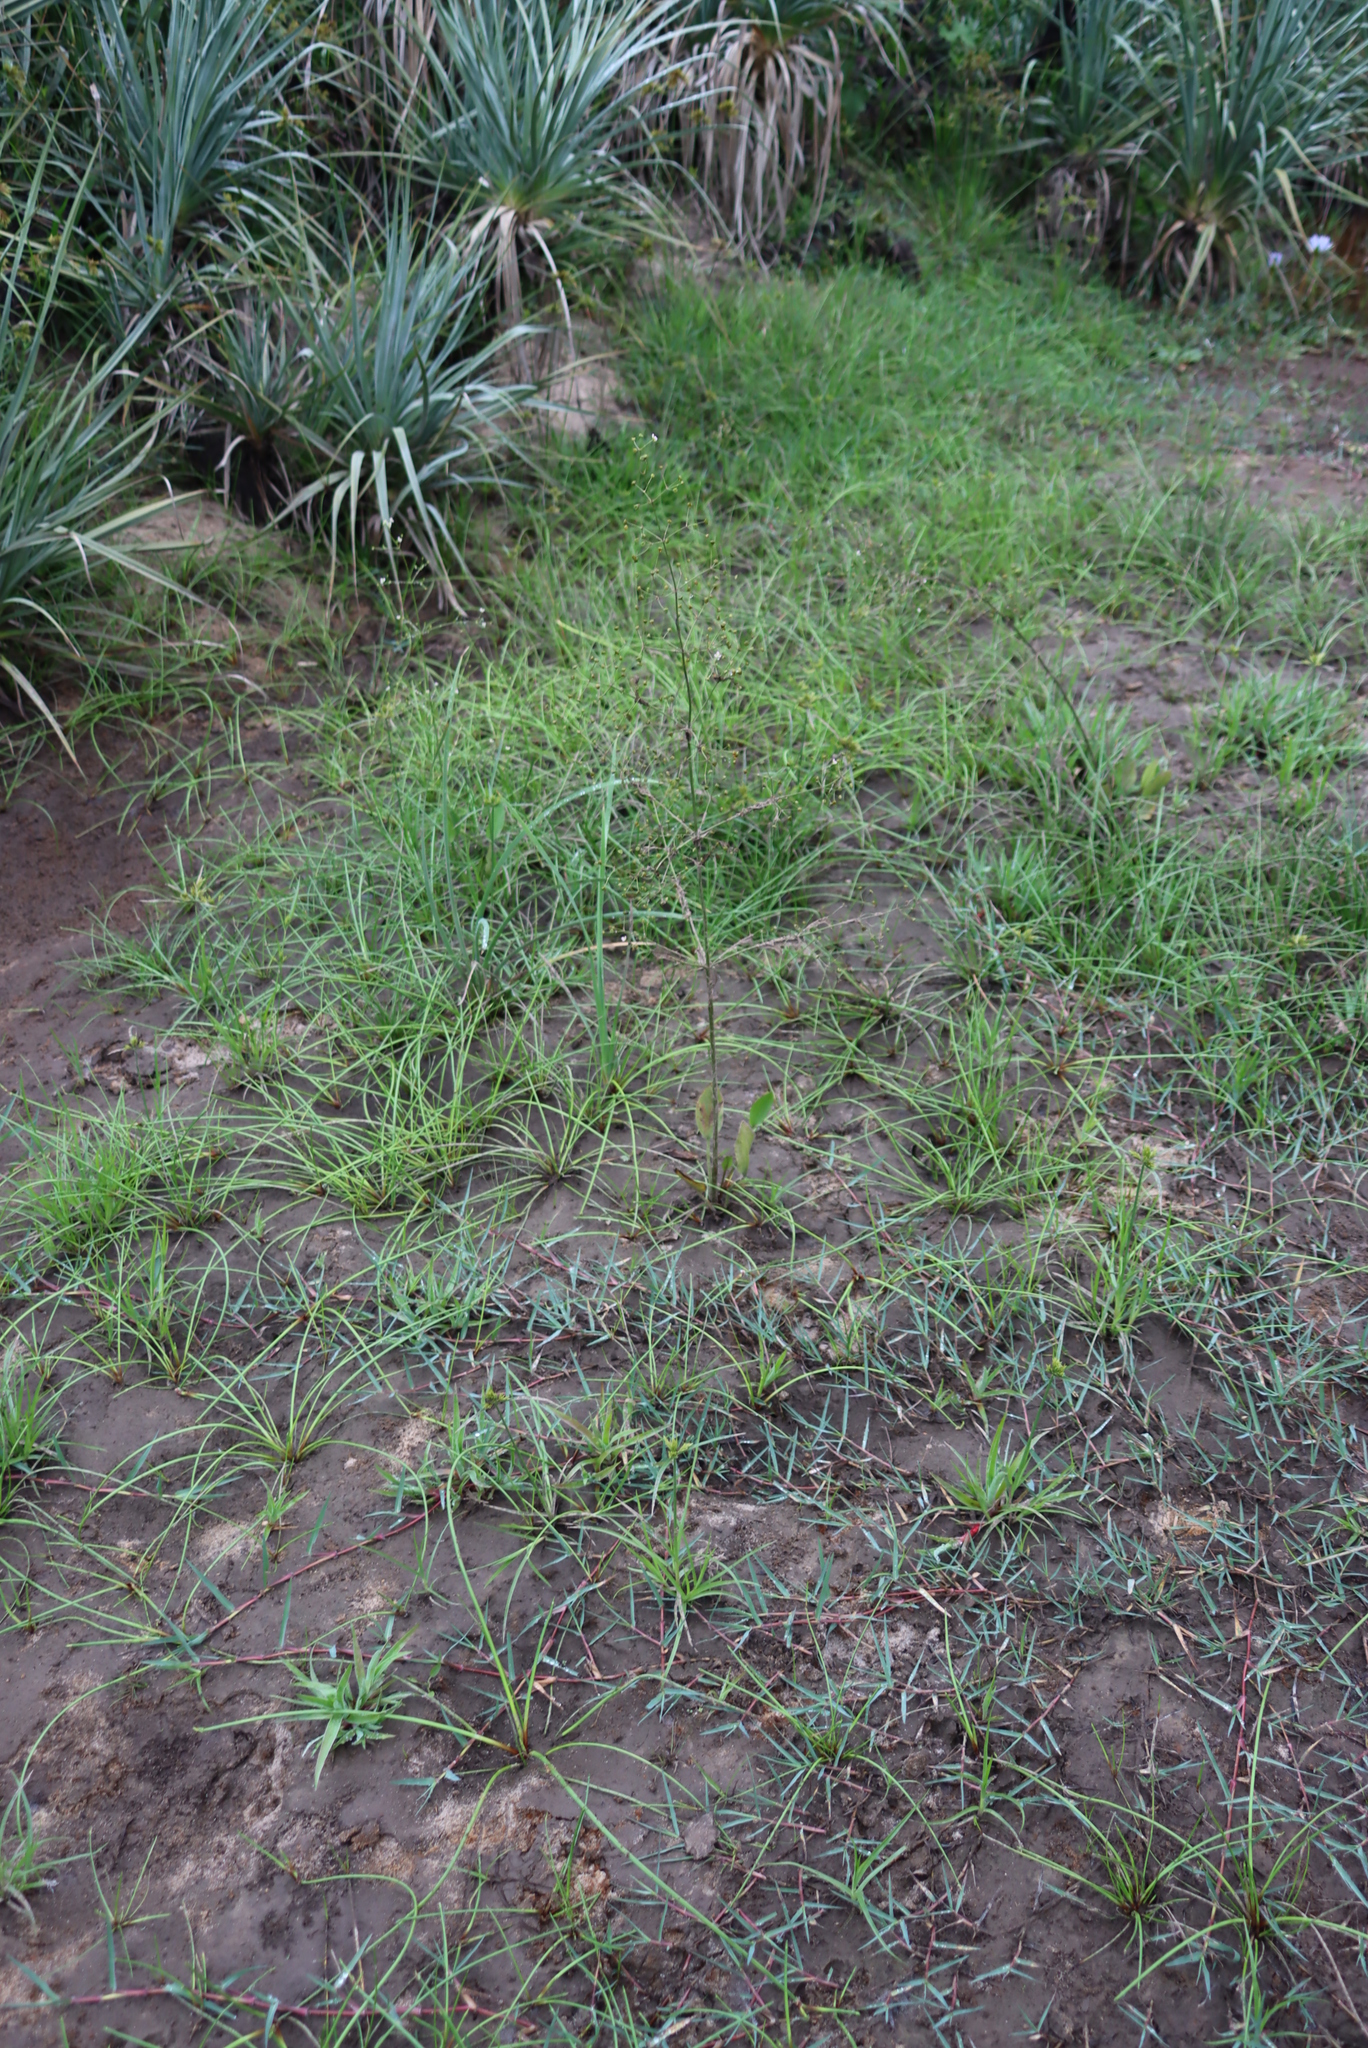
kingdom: Plantae
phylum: Tracheophyta
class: Liliopsida
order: Poales
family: Cyperaceae
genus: Isolepis
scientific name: Isolepis prolifera
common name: Proliferating bulrush
